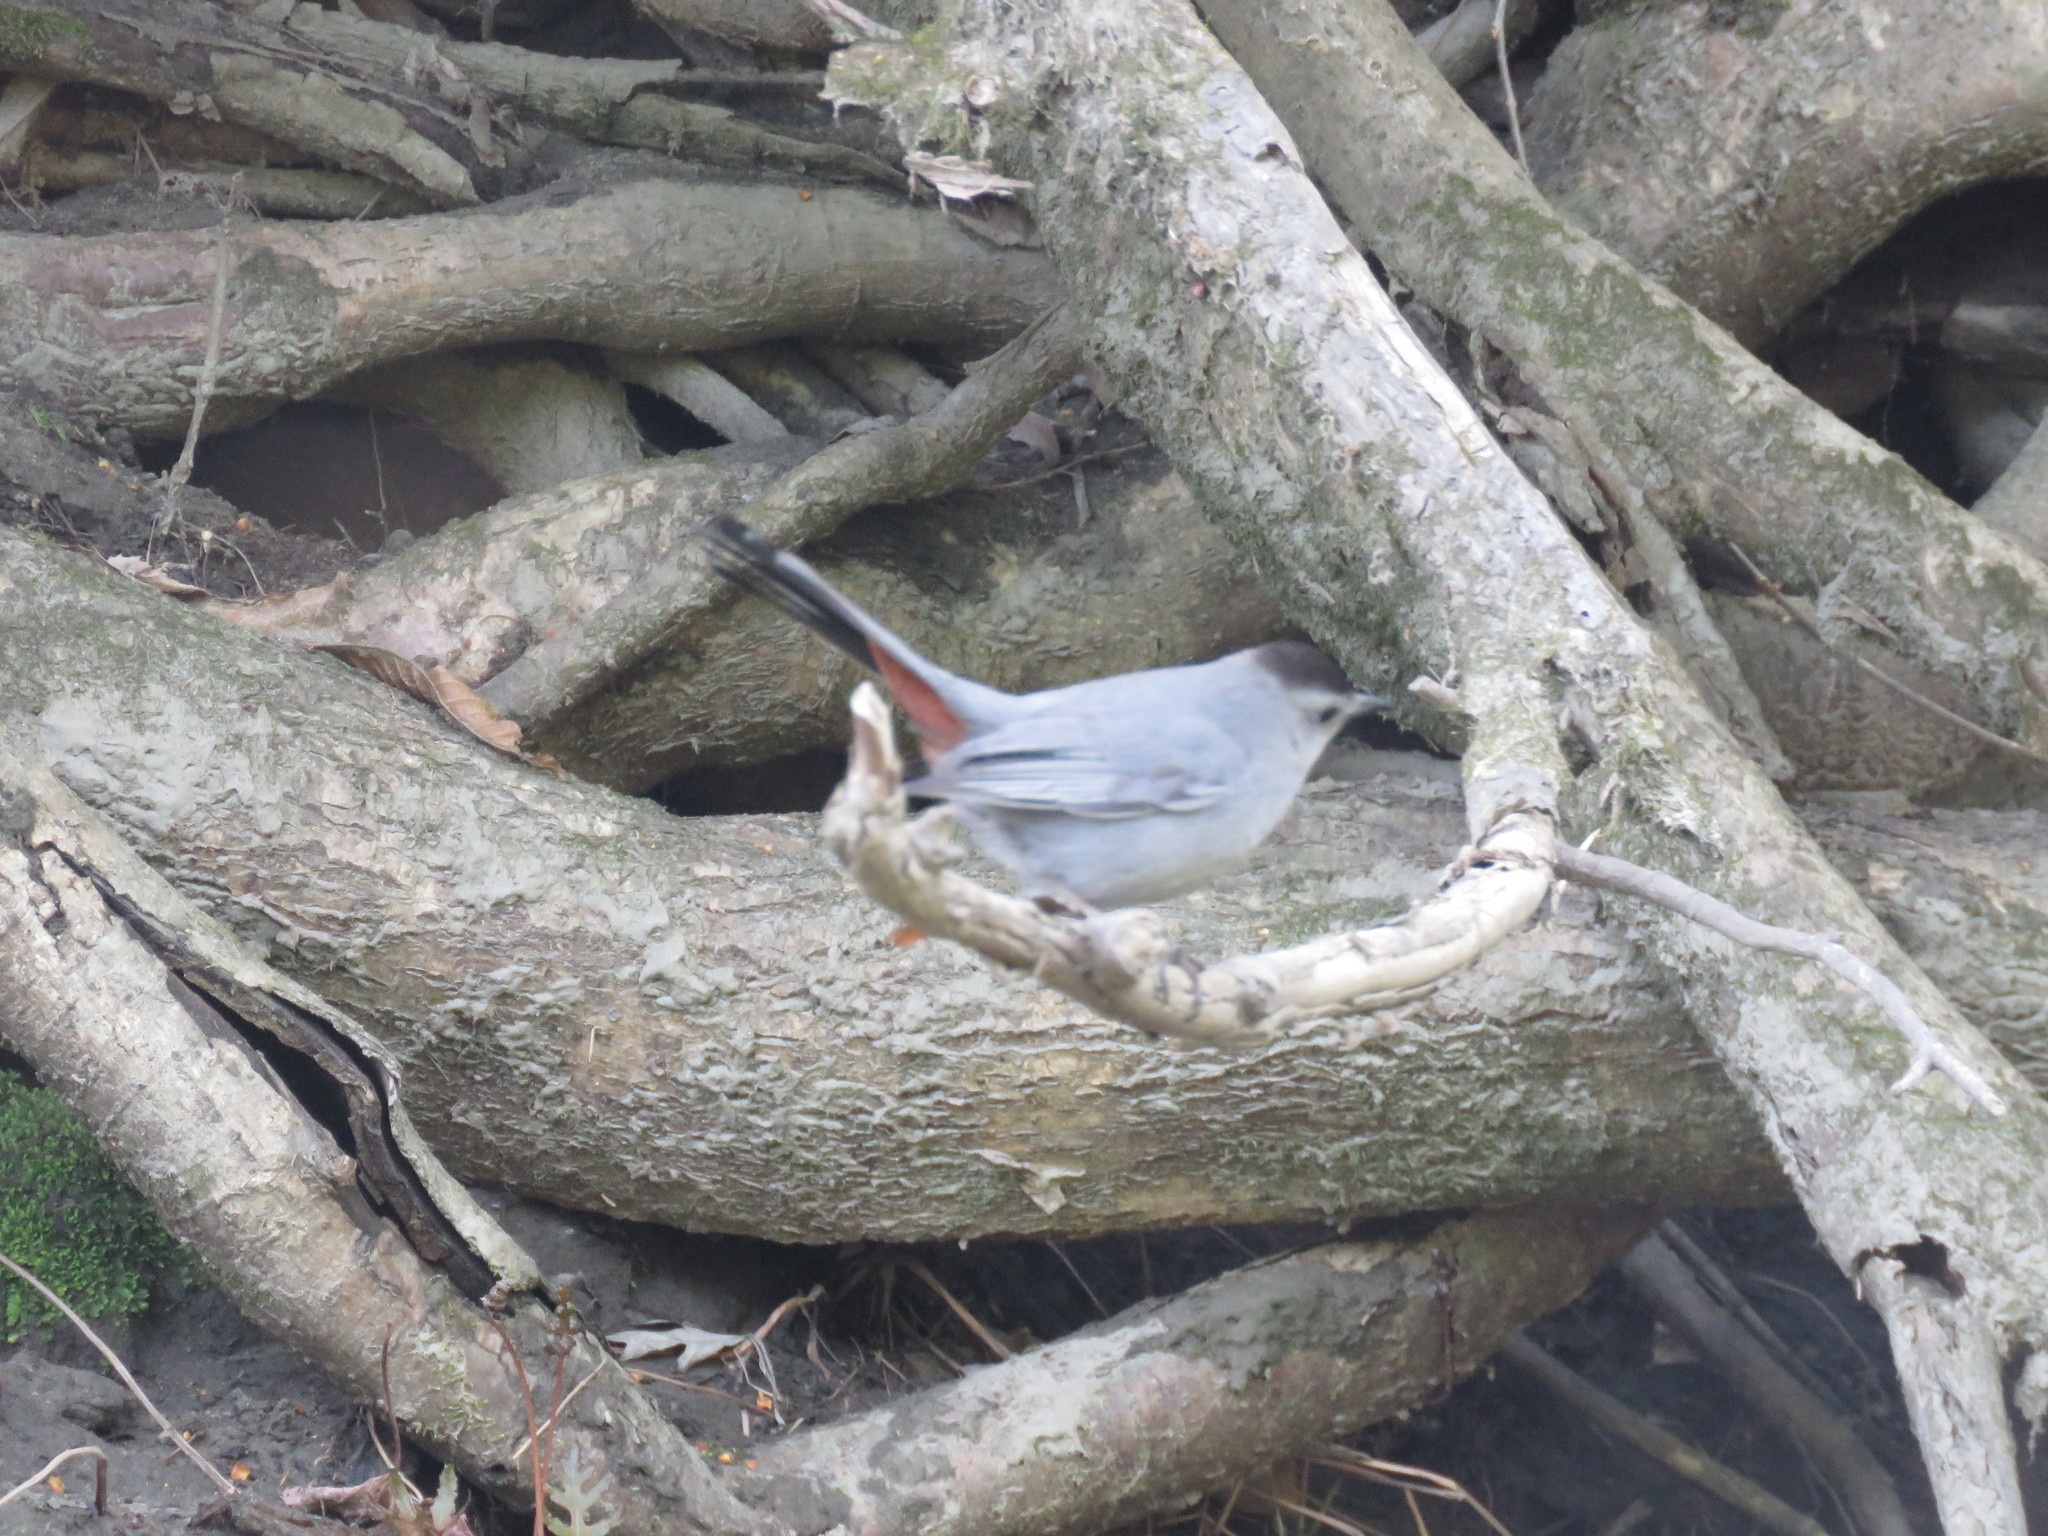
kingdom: Animalia
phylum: Chordata
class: Aves
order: Passeriformes
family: Mimidae
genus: Dumetella
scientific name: Dumetella carolinensis
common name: Gray catbird
